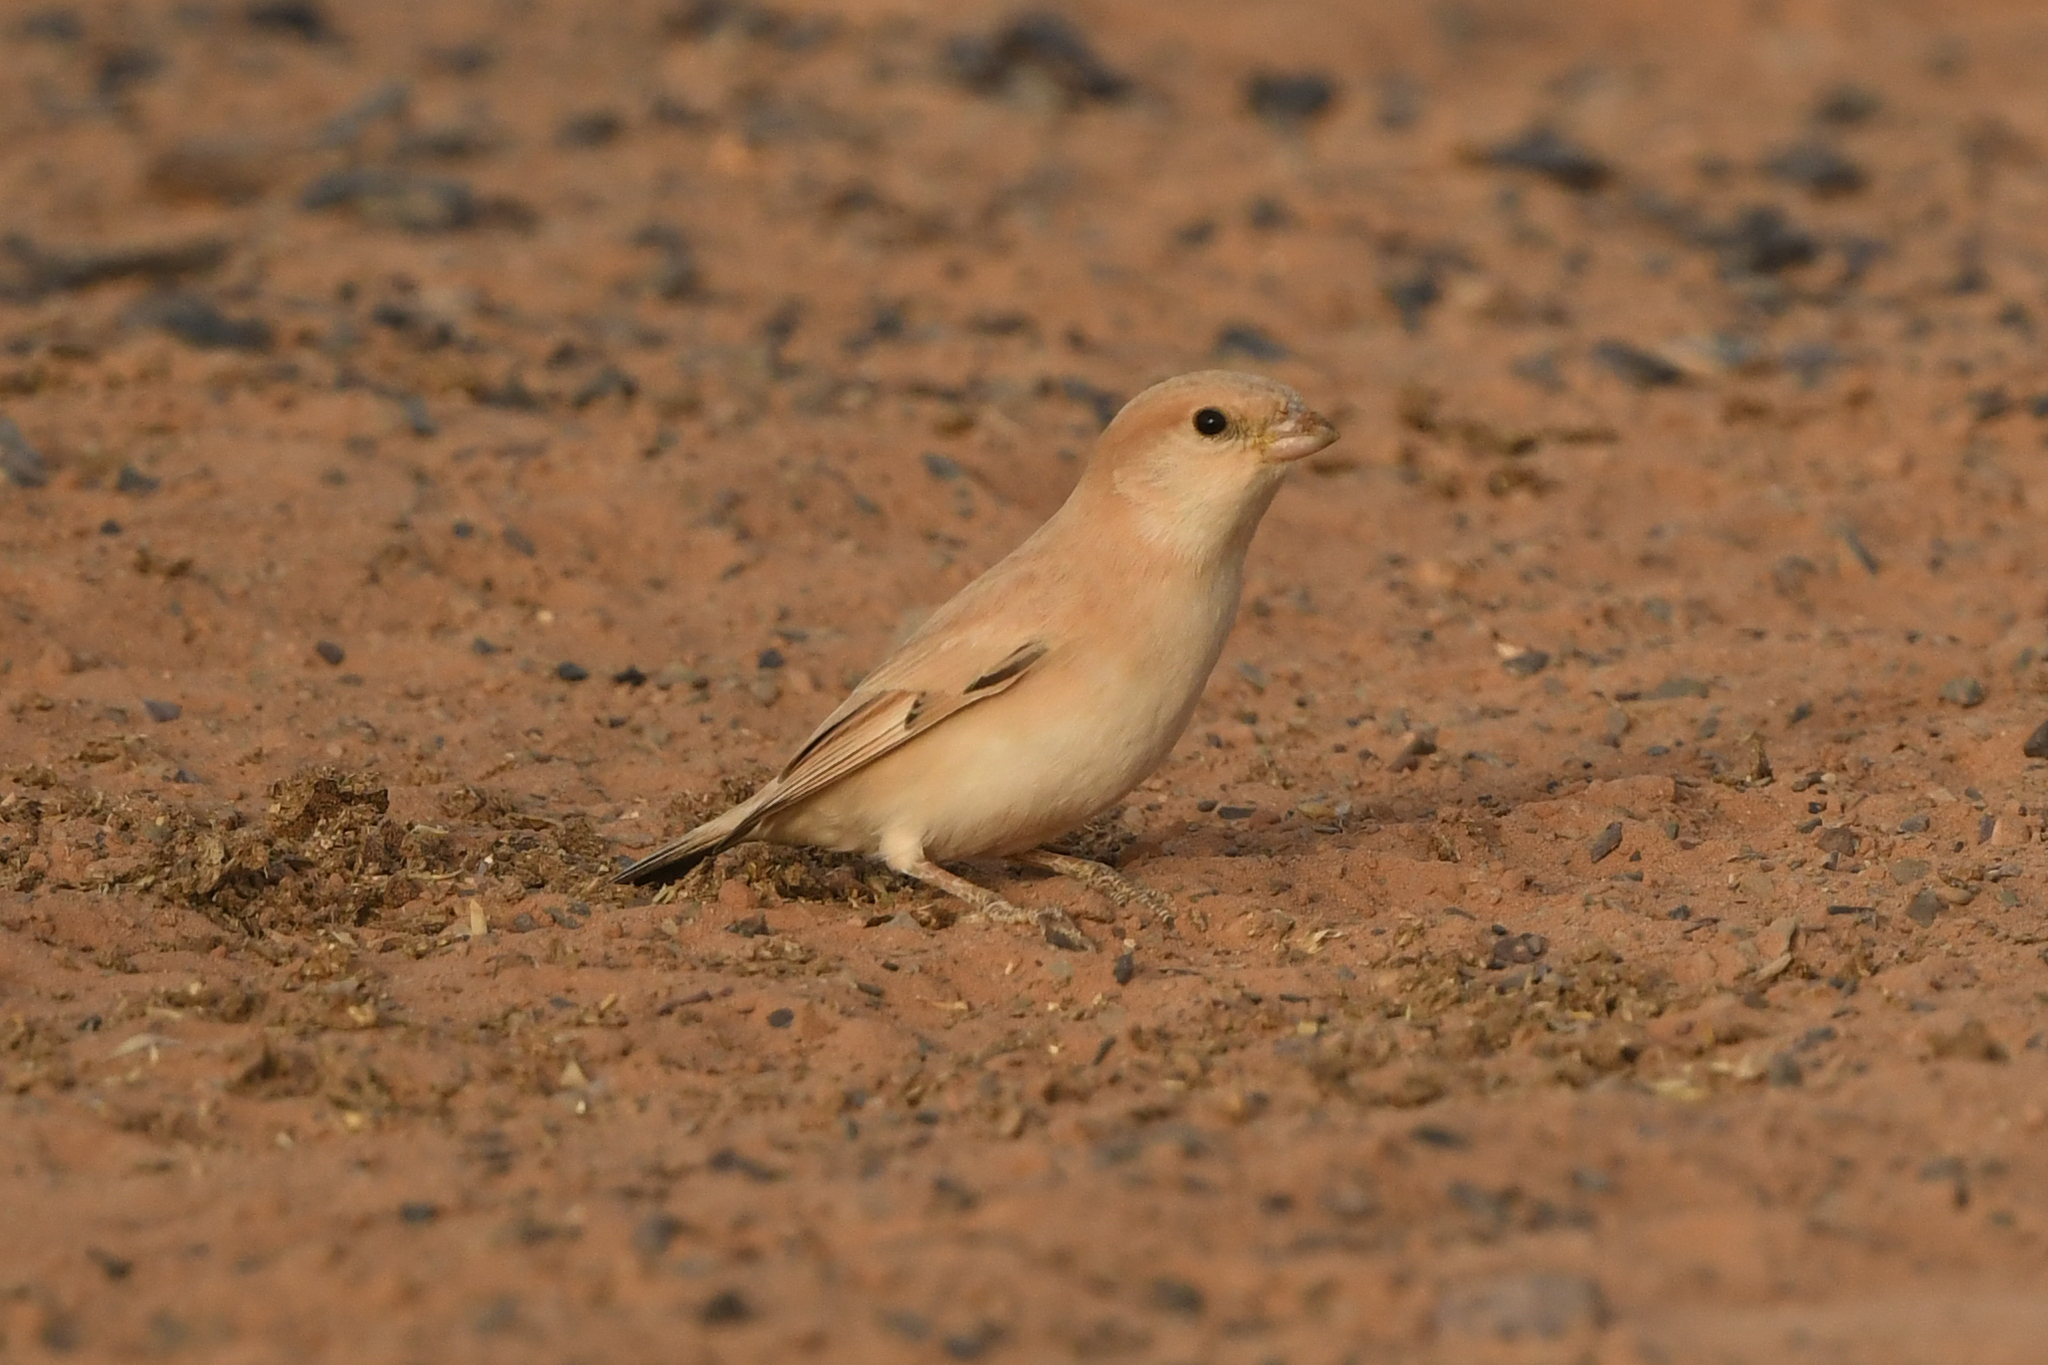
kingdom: Animalia
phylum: Chordata
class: Aves
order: Passeriformes
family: Passeridae
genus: Passer
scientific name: Passer simplex
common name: Desert sparrow
